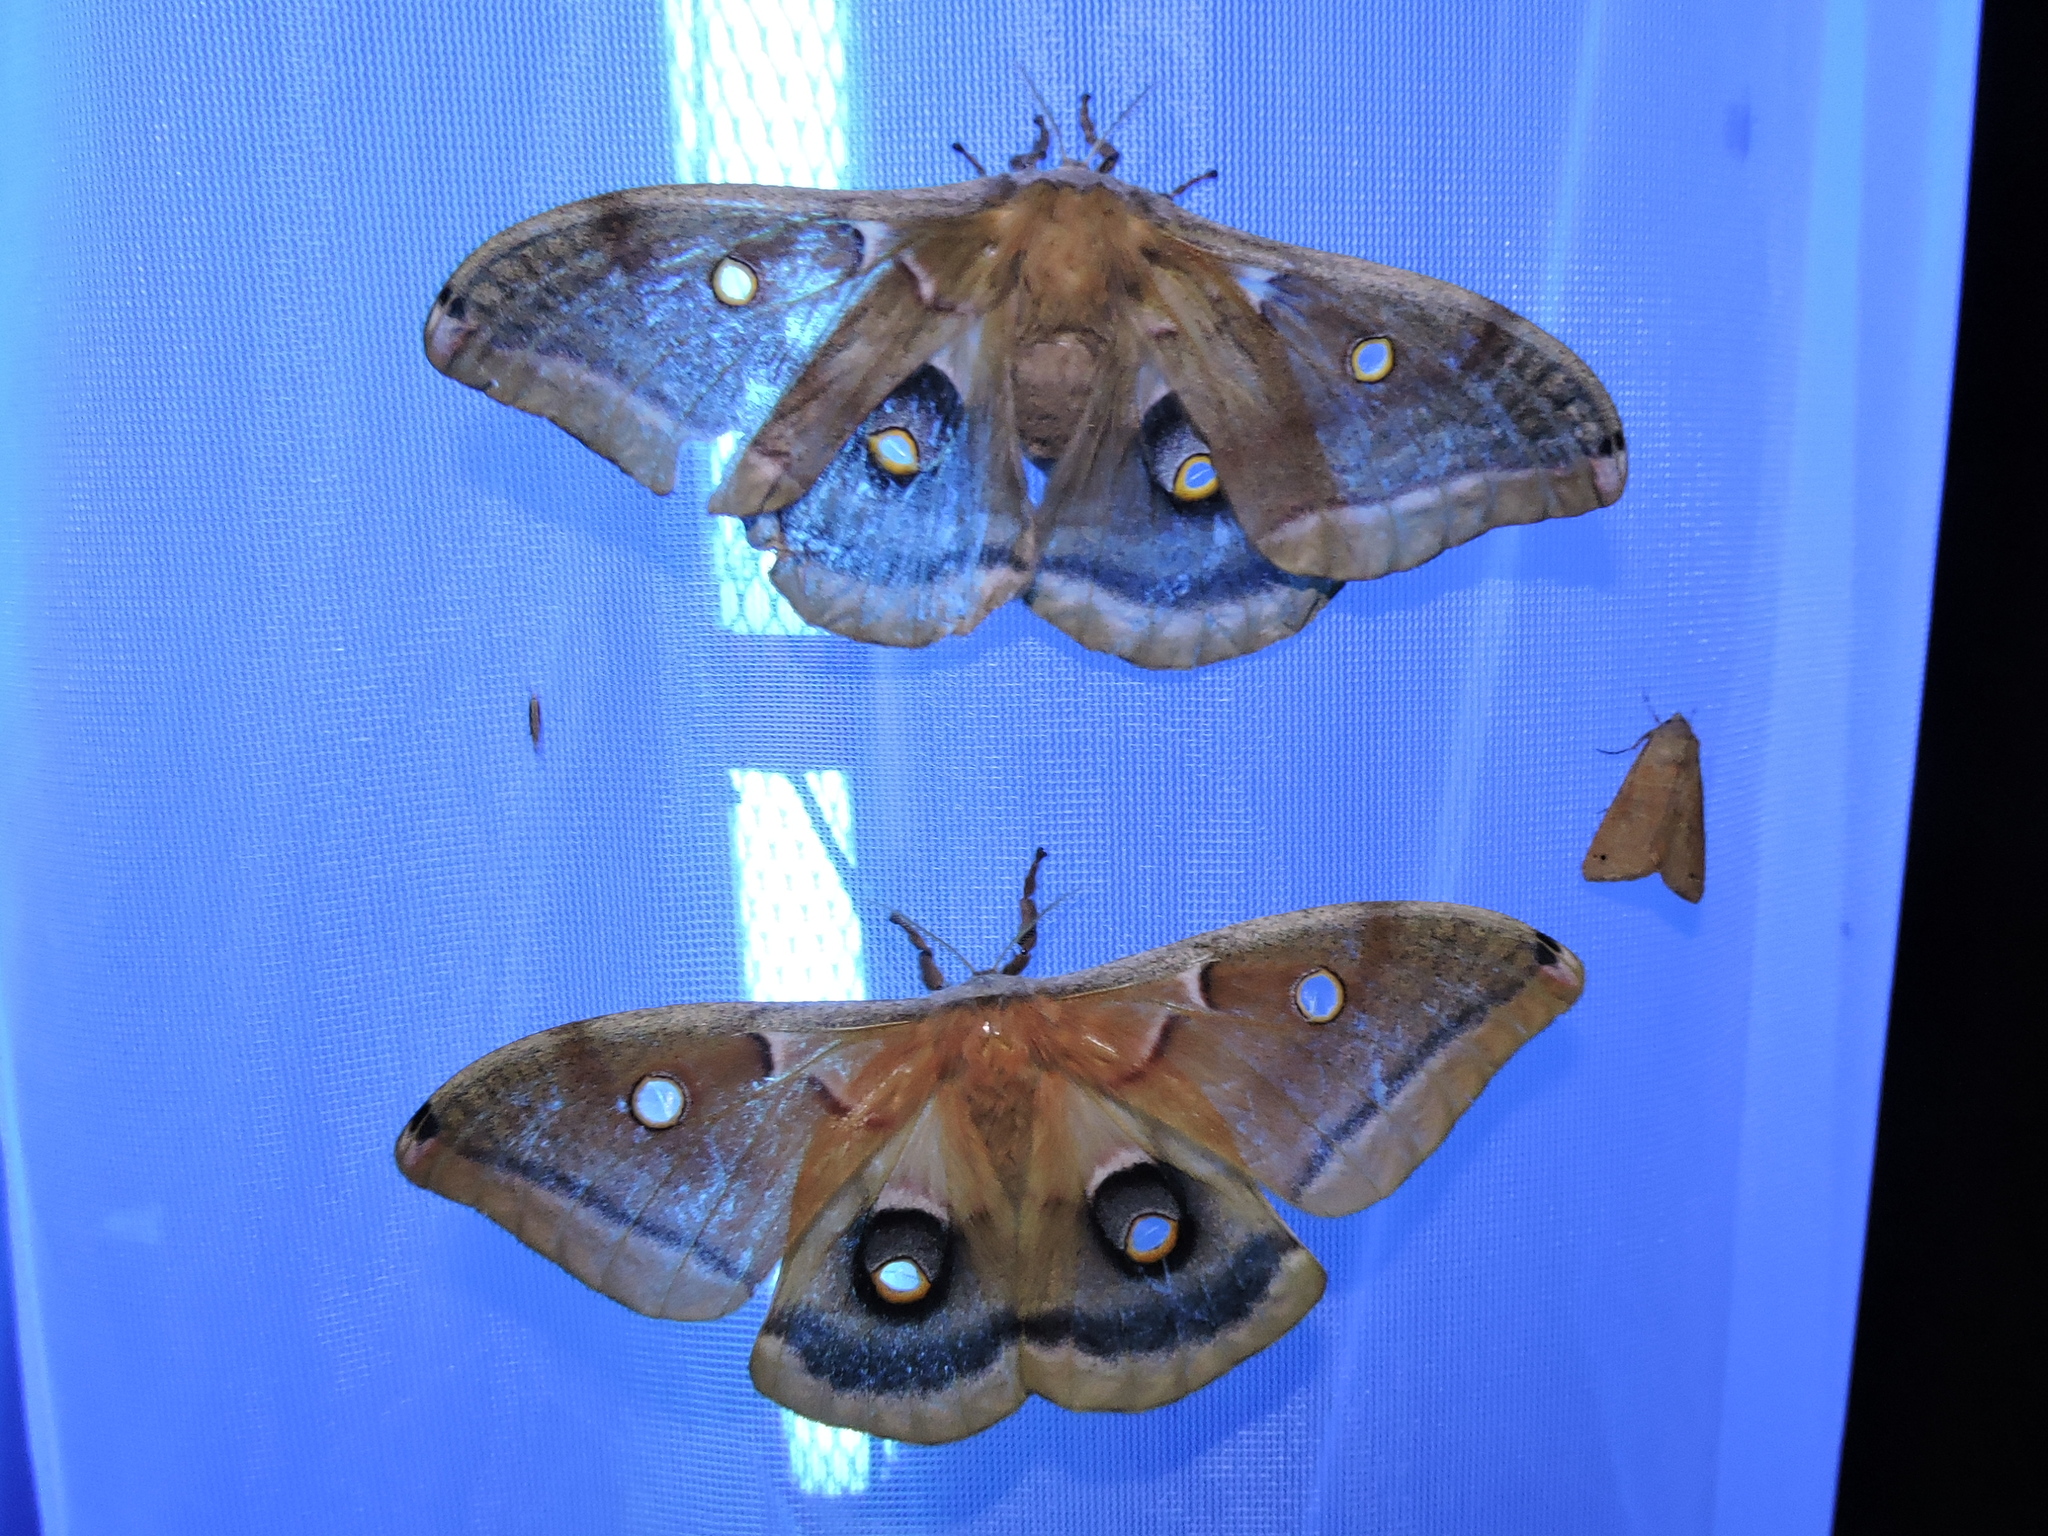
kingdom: Animalia
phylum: Arthropoda
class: Insecta
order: Lepidoptera
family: Saturniidae
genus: Antheraea
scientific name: Antheraea polyphemus
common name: Polyphemus moth
